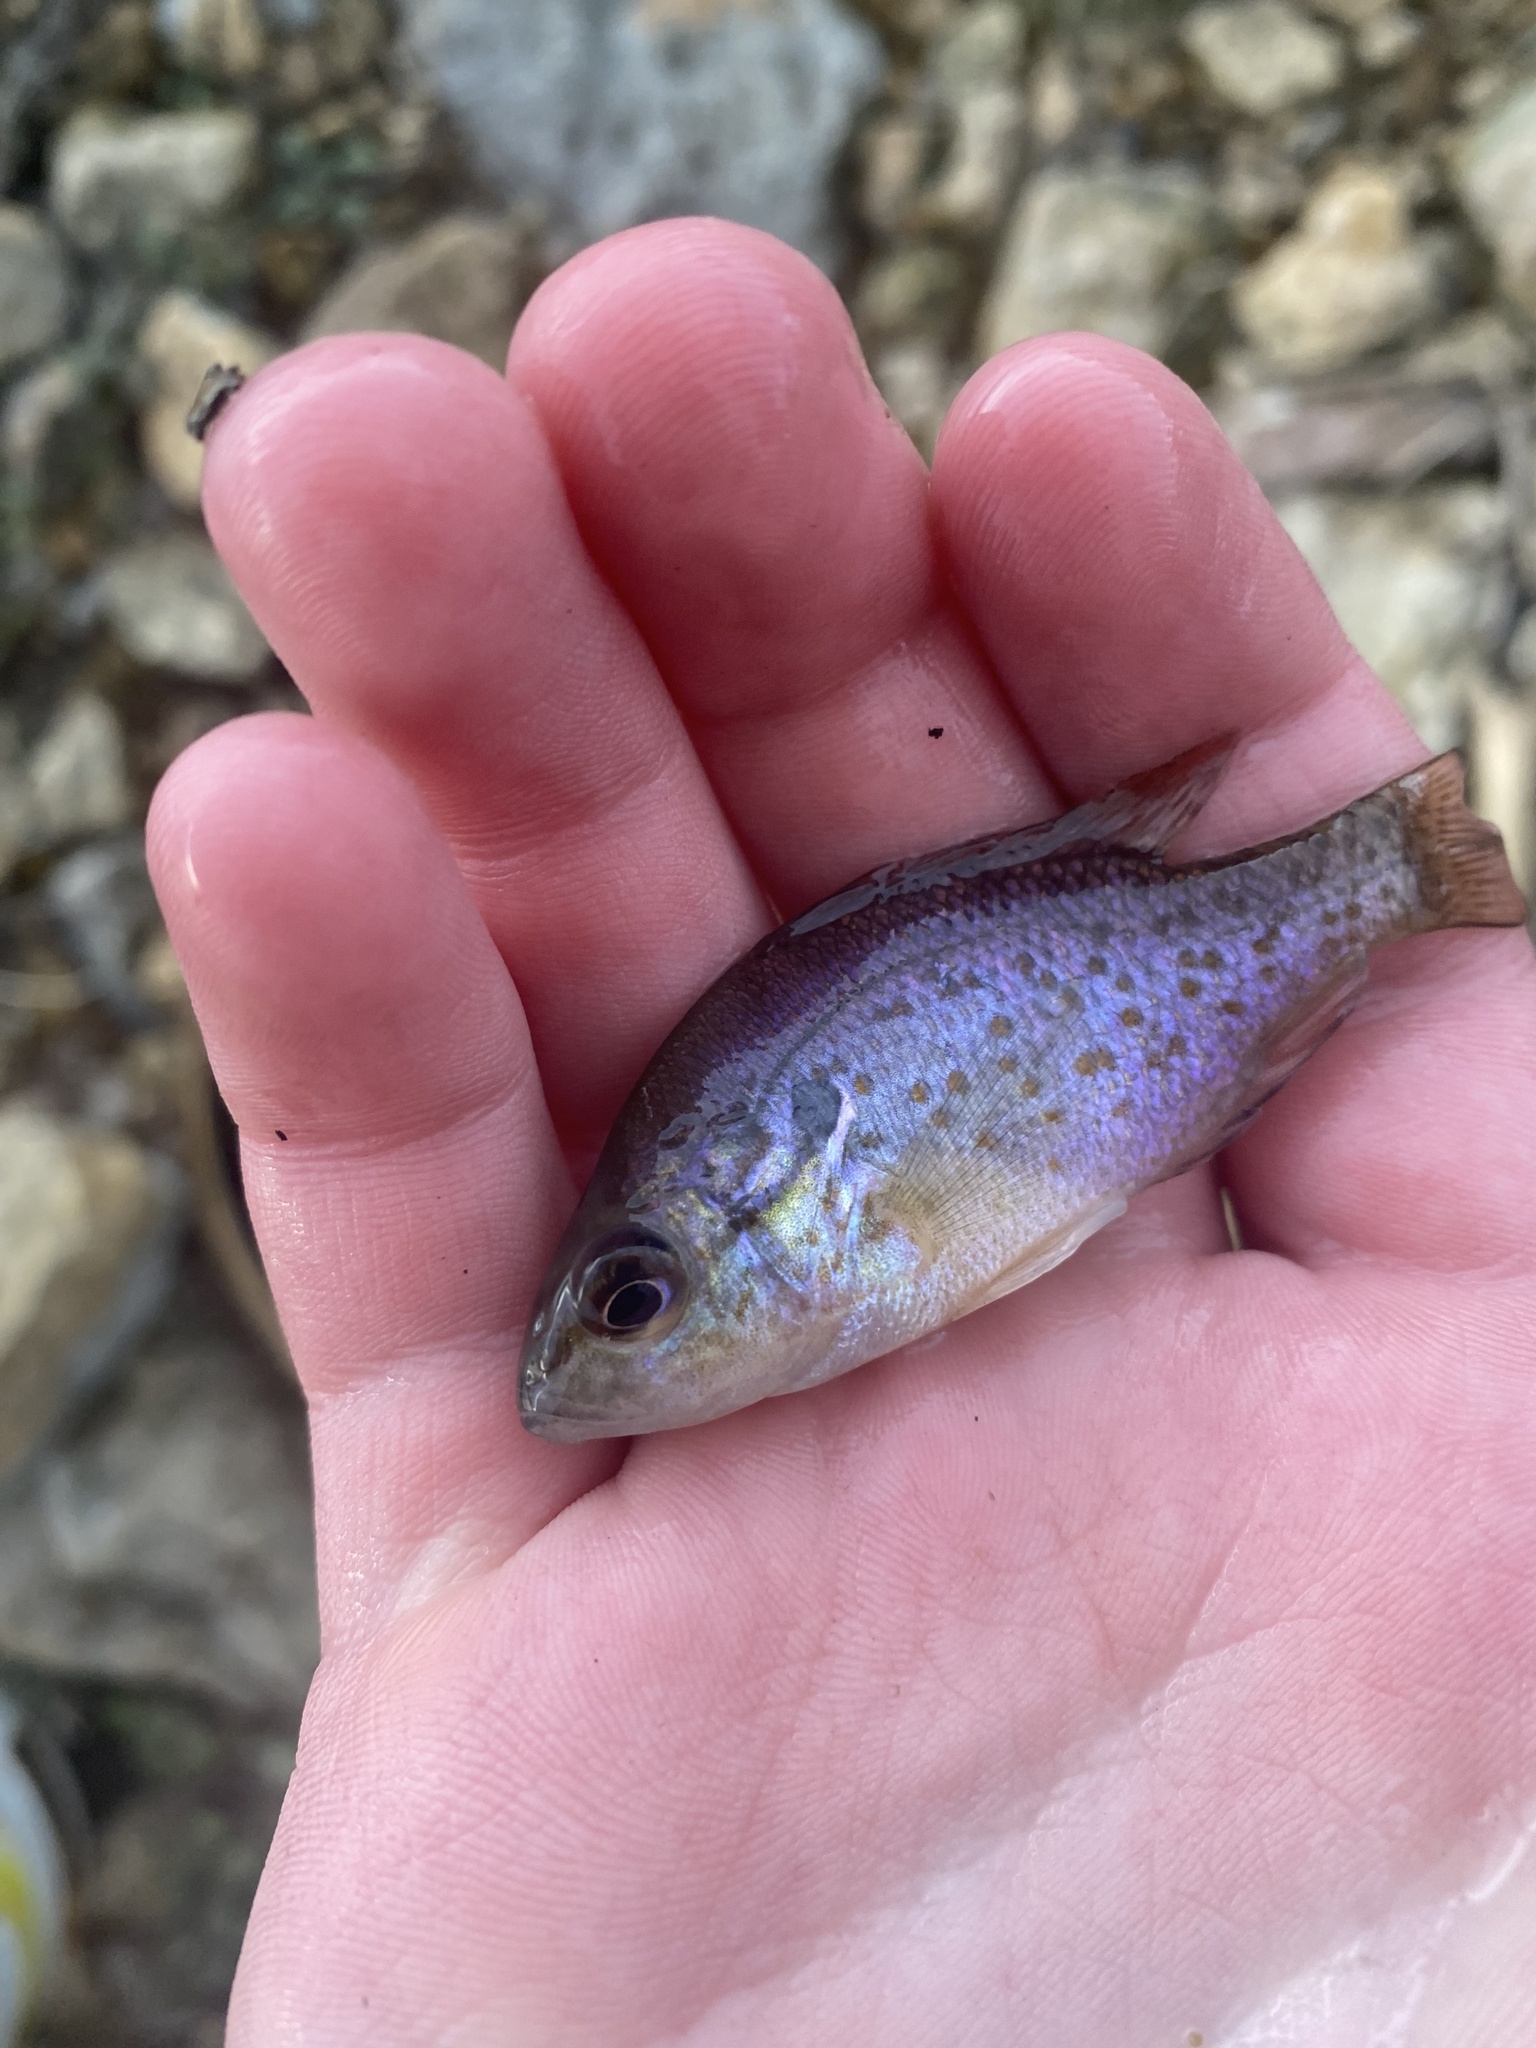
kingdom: Animalia
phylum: Chordata
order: Perciformes
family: Centrarchidae
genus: Lepomis
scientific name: Lepomis humilis
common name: Orangespotted sunfish
